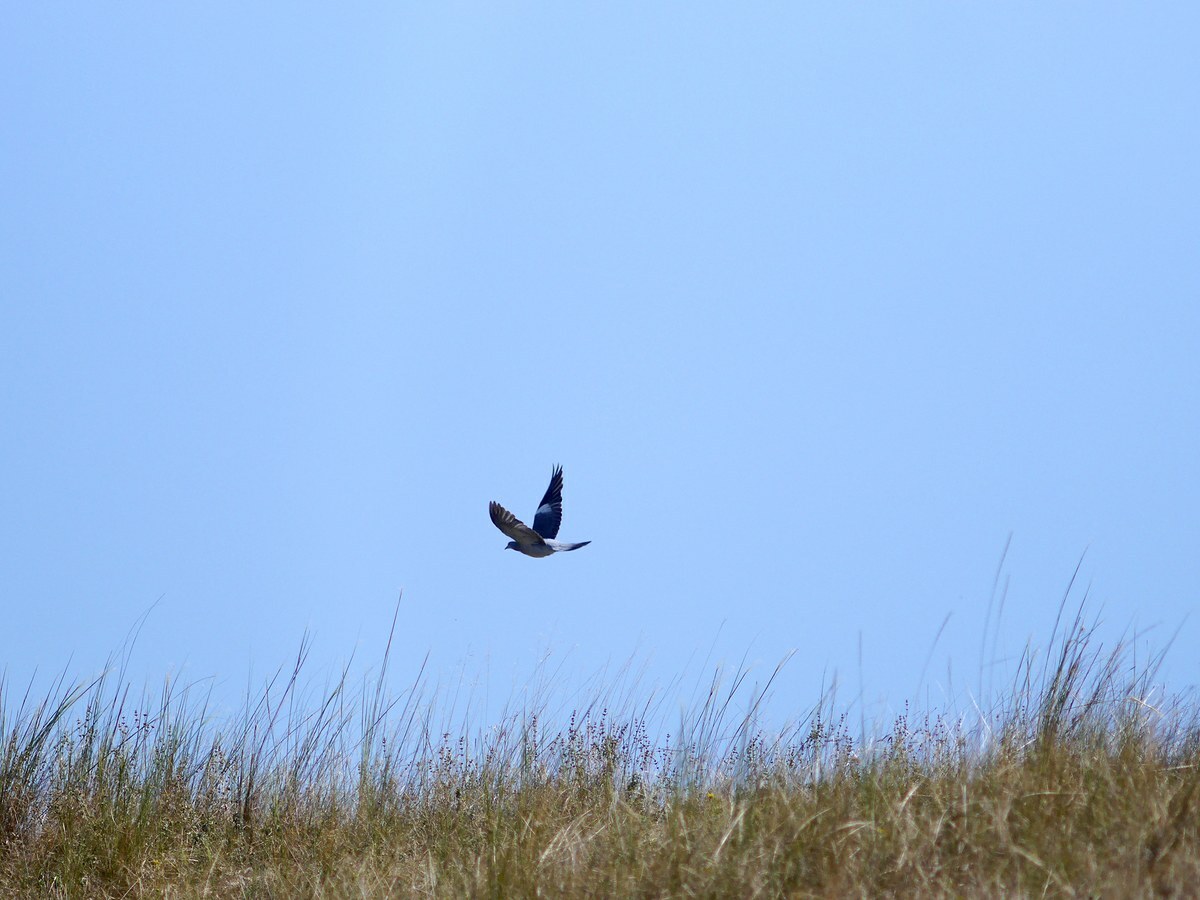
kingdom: Animalia
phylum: Chordata
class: Aves
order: Columbiformes
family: Columbidae
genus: Columba
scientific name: Columba palumbus
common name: Common wood pigeon
